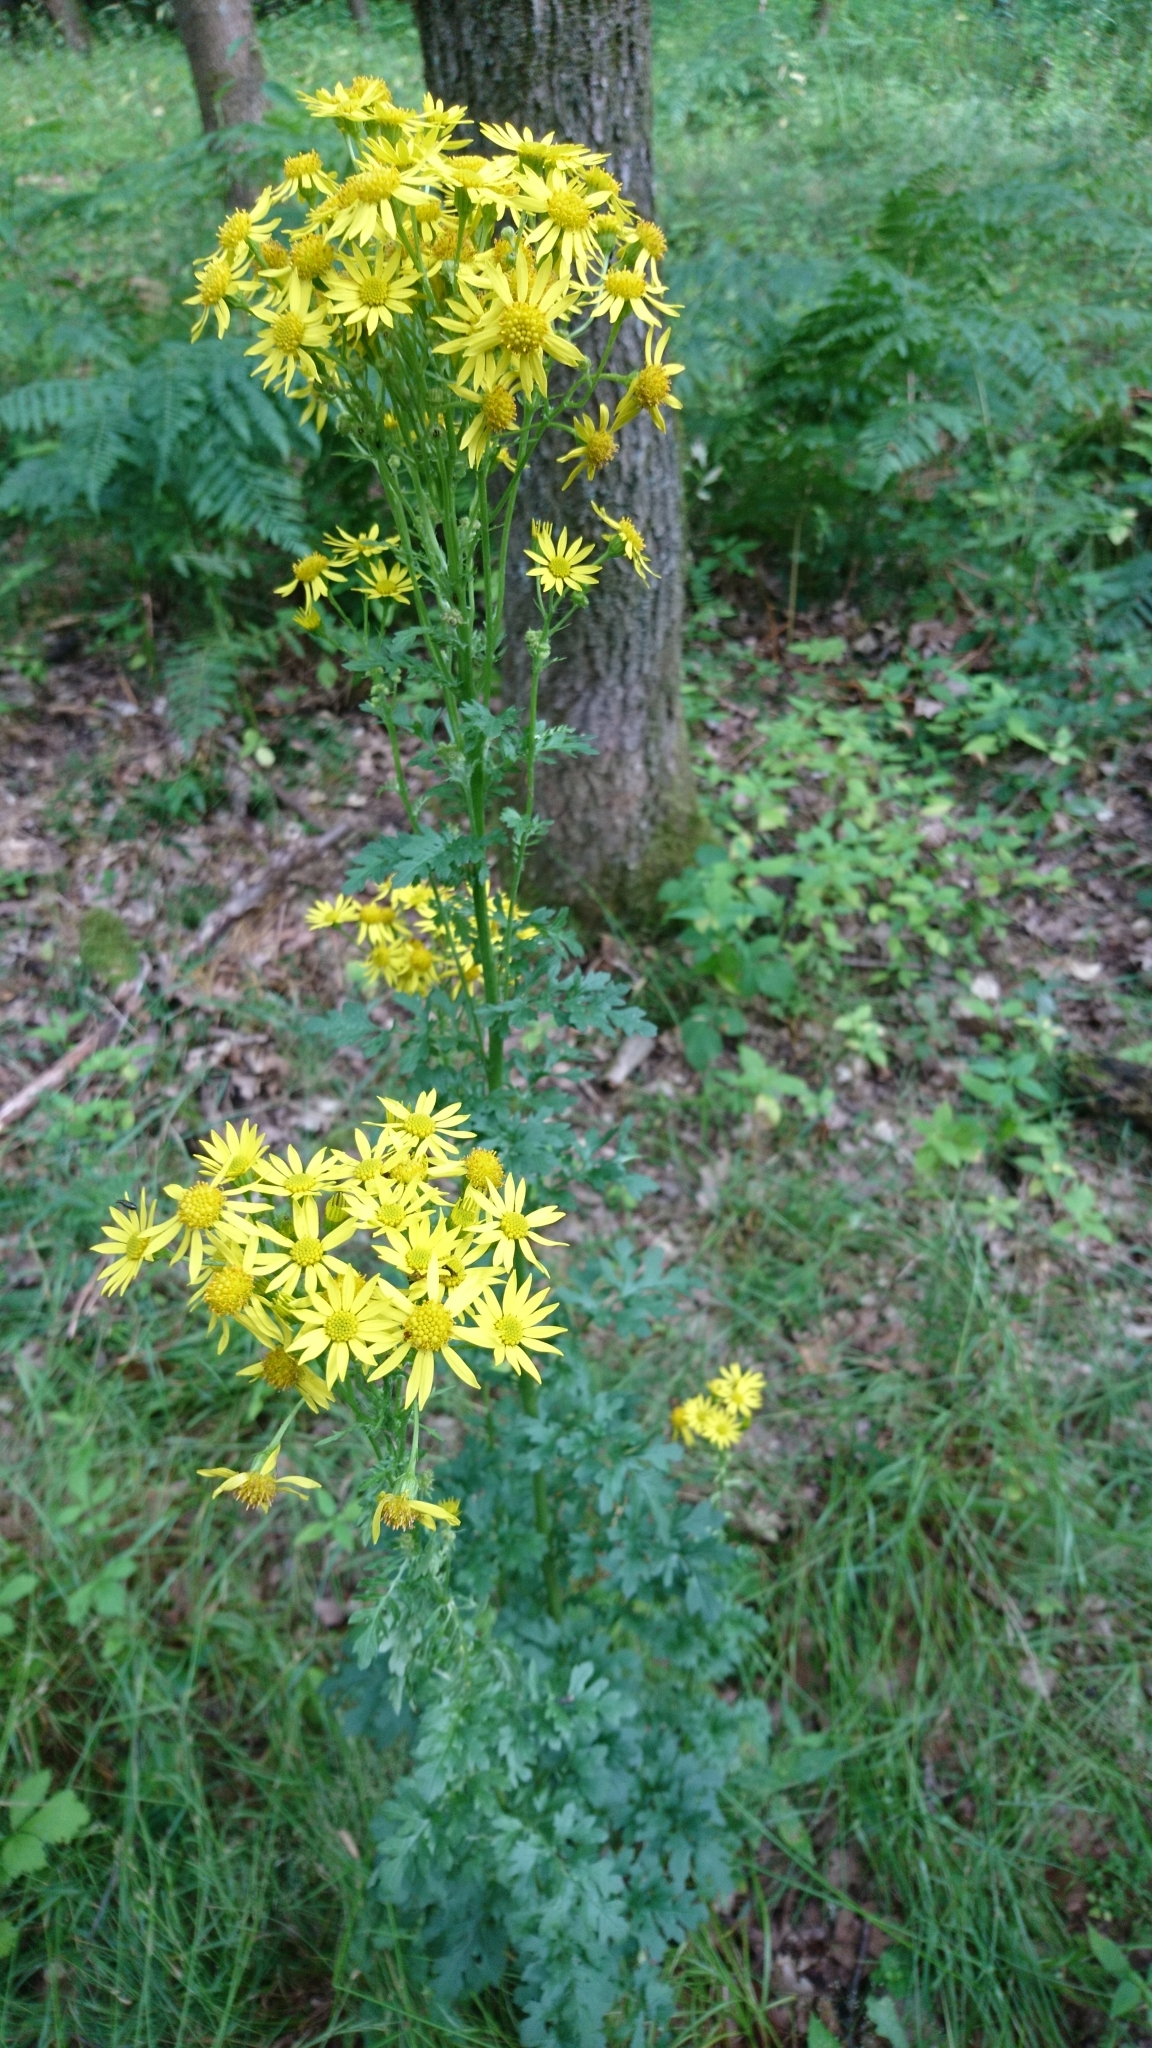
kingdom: Plantae
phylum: Tracheophyta
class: Magnoliopsida
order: Asterales
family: Asteraceae
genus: Jacobaea
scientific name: Jacobaea vulgaris
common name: Stinking willie
